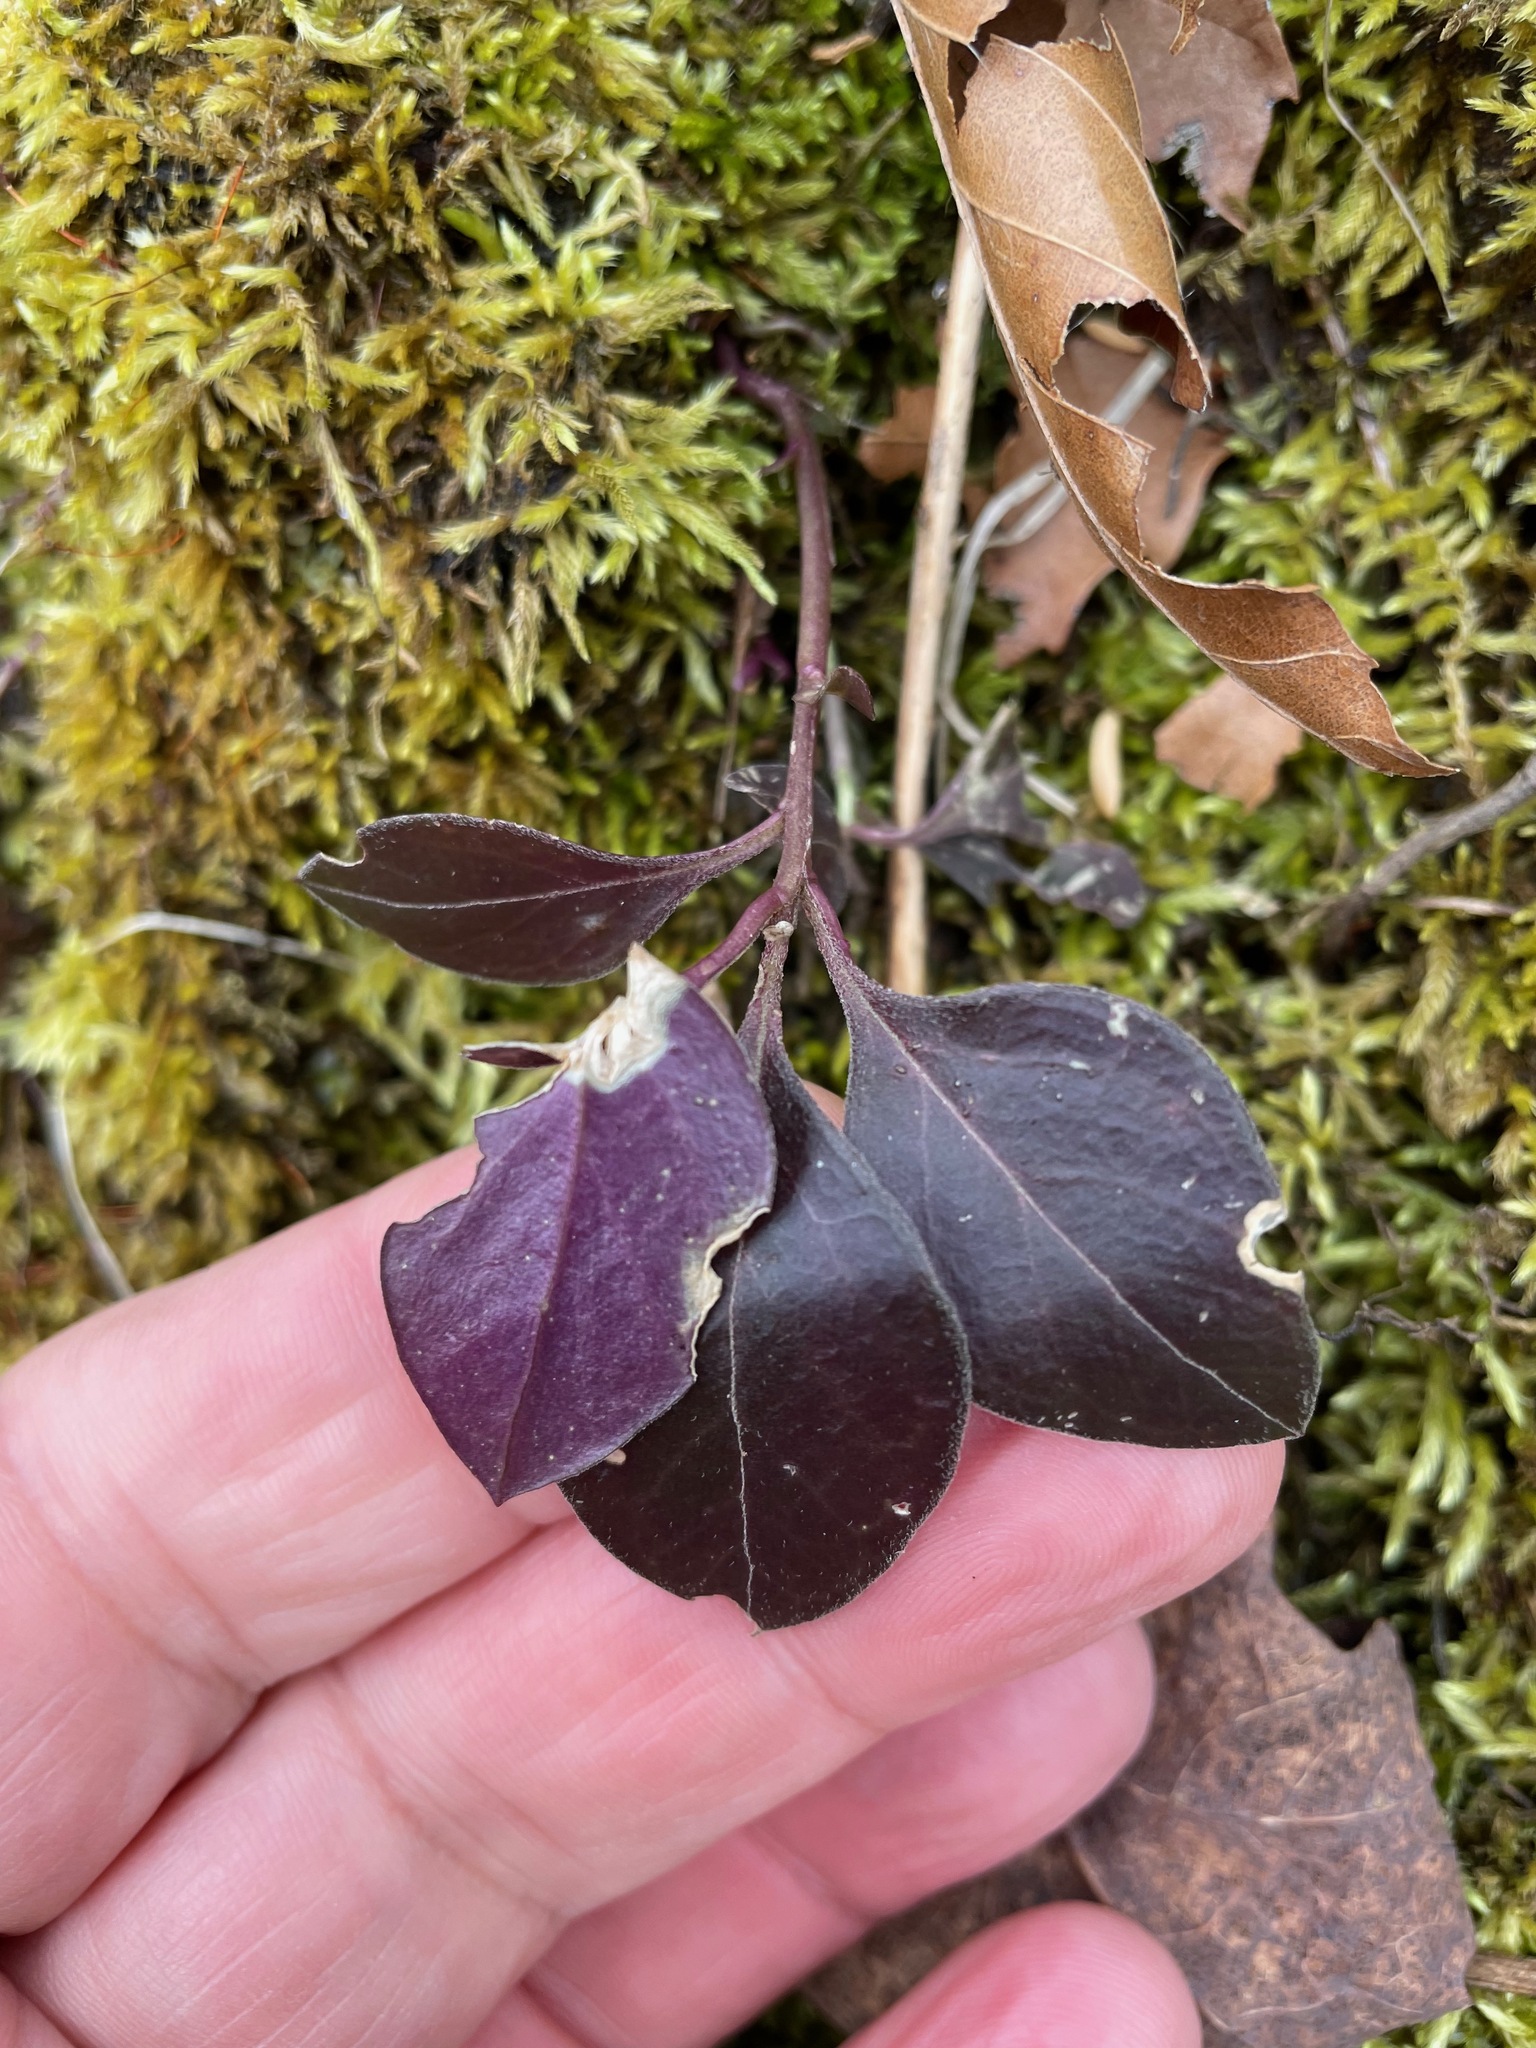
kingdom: Plantae
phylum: Tracheophyta
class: Magnoliopsida
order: Fabales
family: Polygalaceae
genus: Polygaloides
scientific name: Polygaloides paucifolia
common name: Bird-on-the-wing
